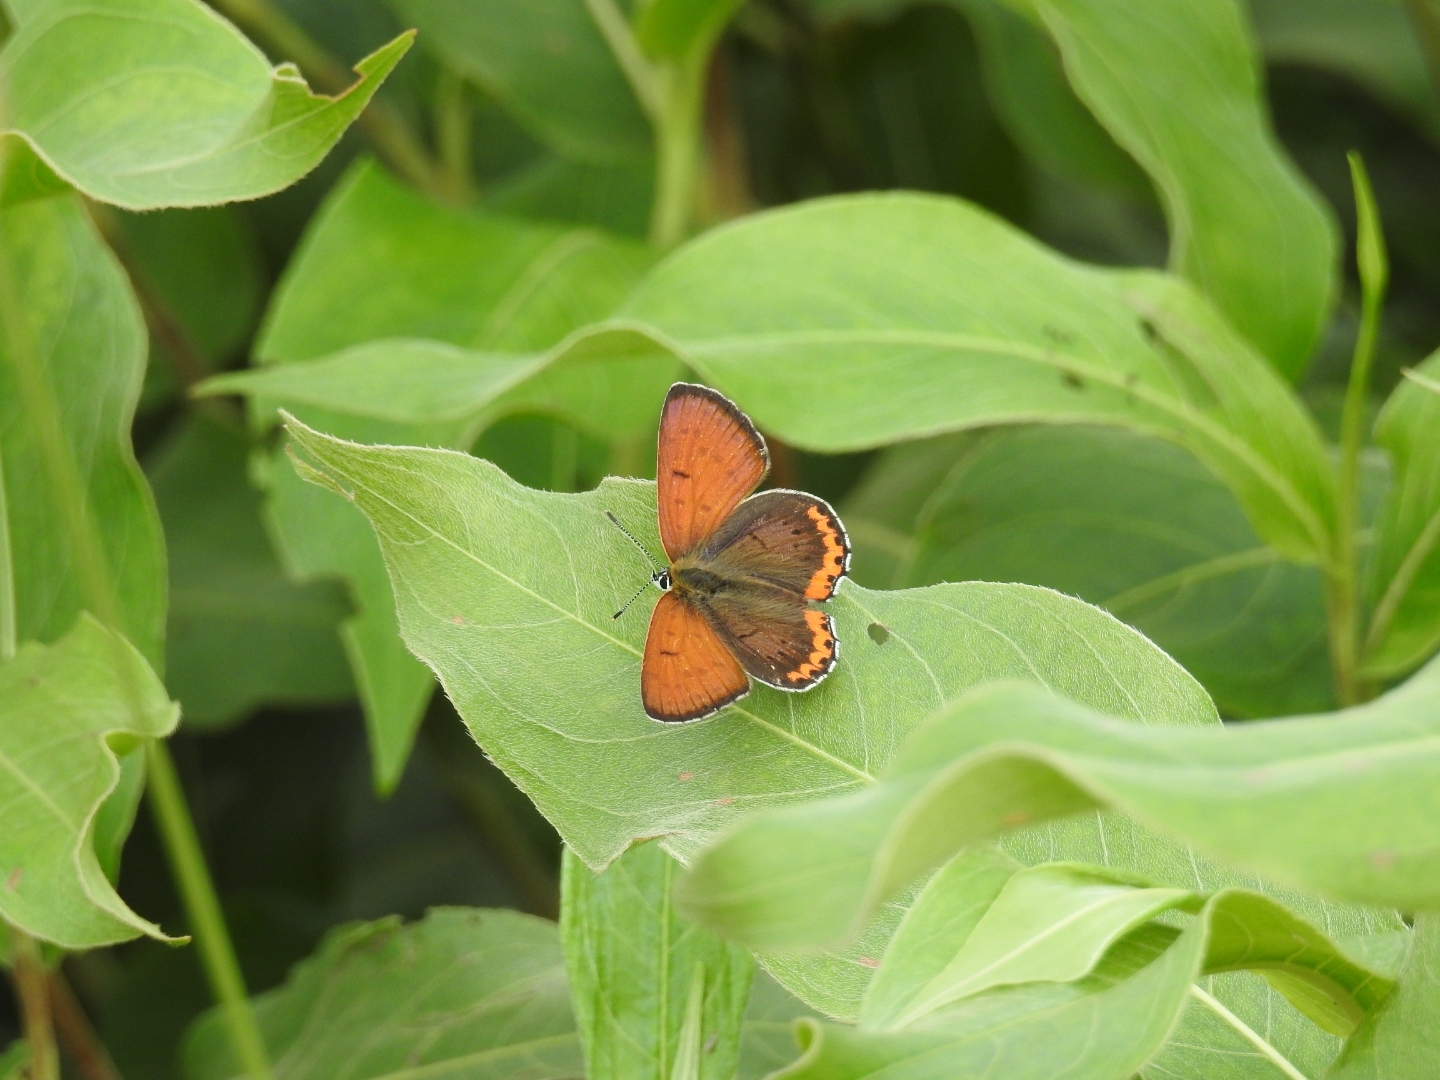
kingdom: Animalia
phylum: Arthropoda
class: Insecta
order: Lepidoptera
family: Lycaenidae
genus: Tharsalea
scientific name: Tharsalea hyllus
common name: Bronze copper
